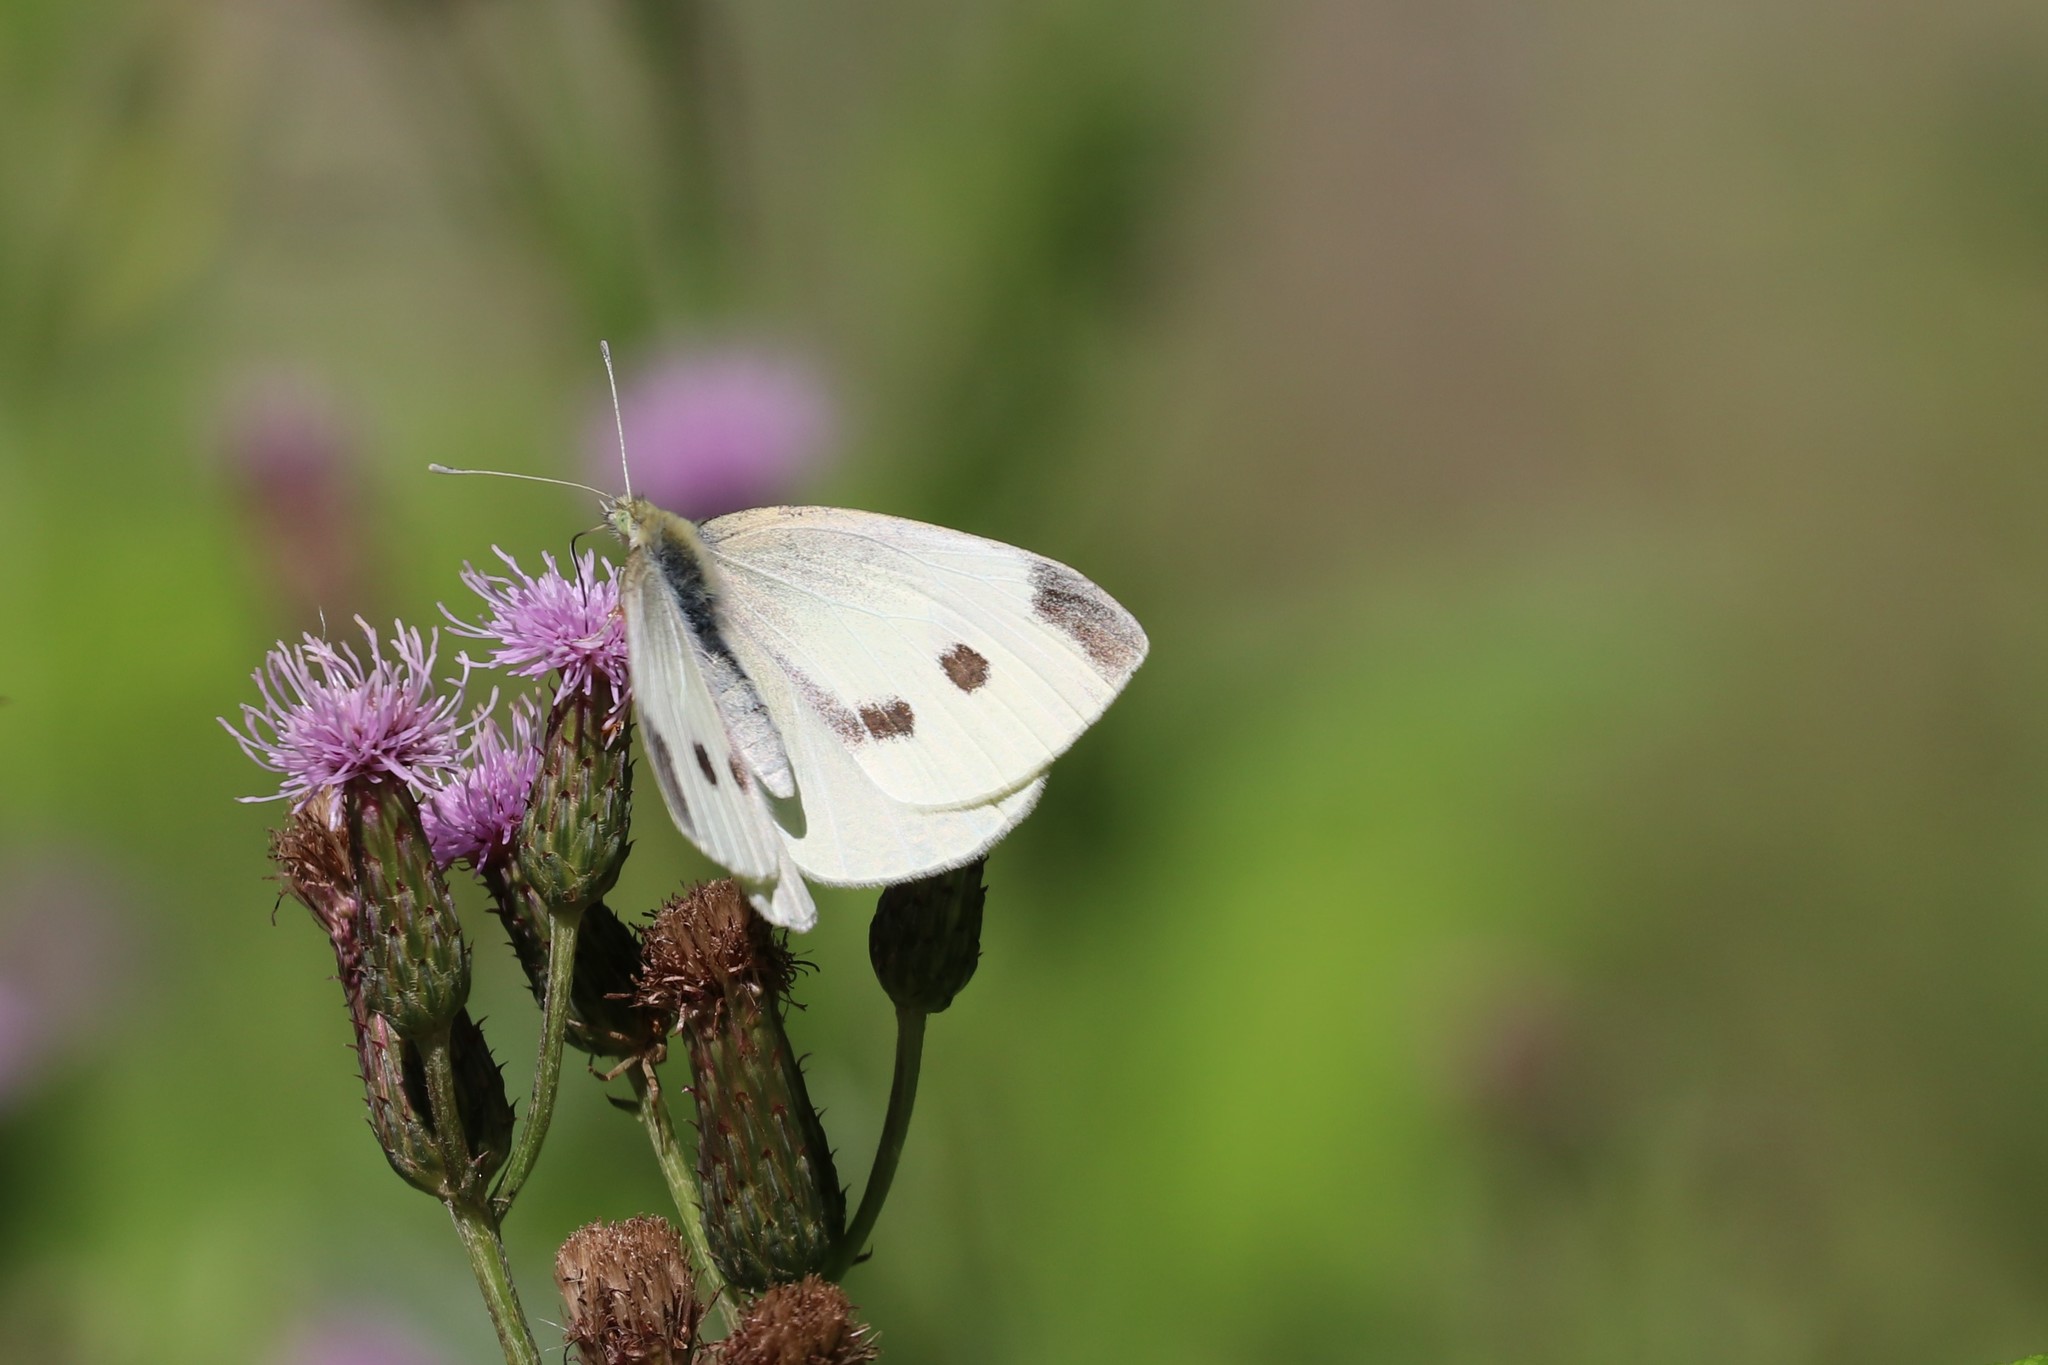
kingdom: Animalia
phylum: Arthropoda
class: Insecta
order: Lepidoptera
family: Pieridae
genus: Pieris
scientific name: Pieris rapae
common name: Small white
